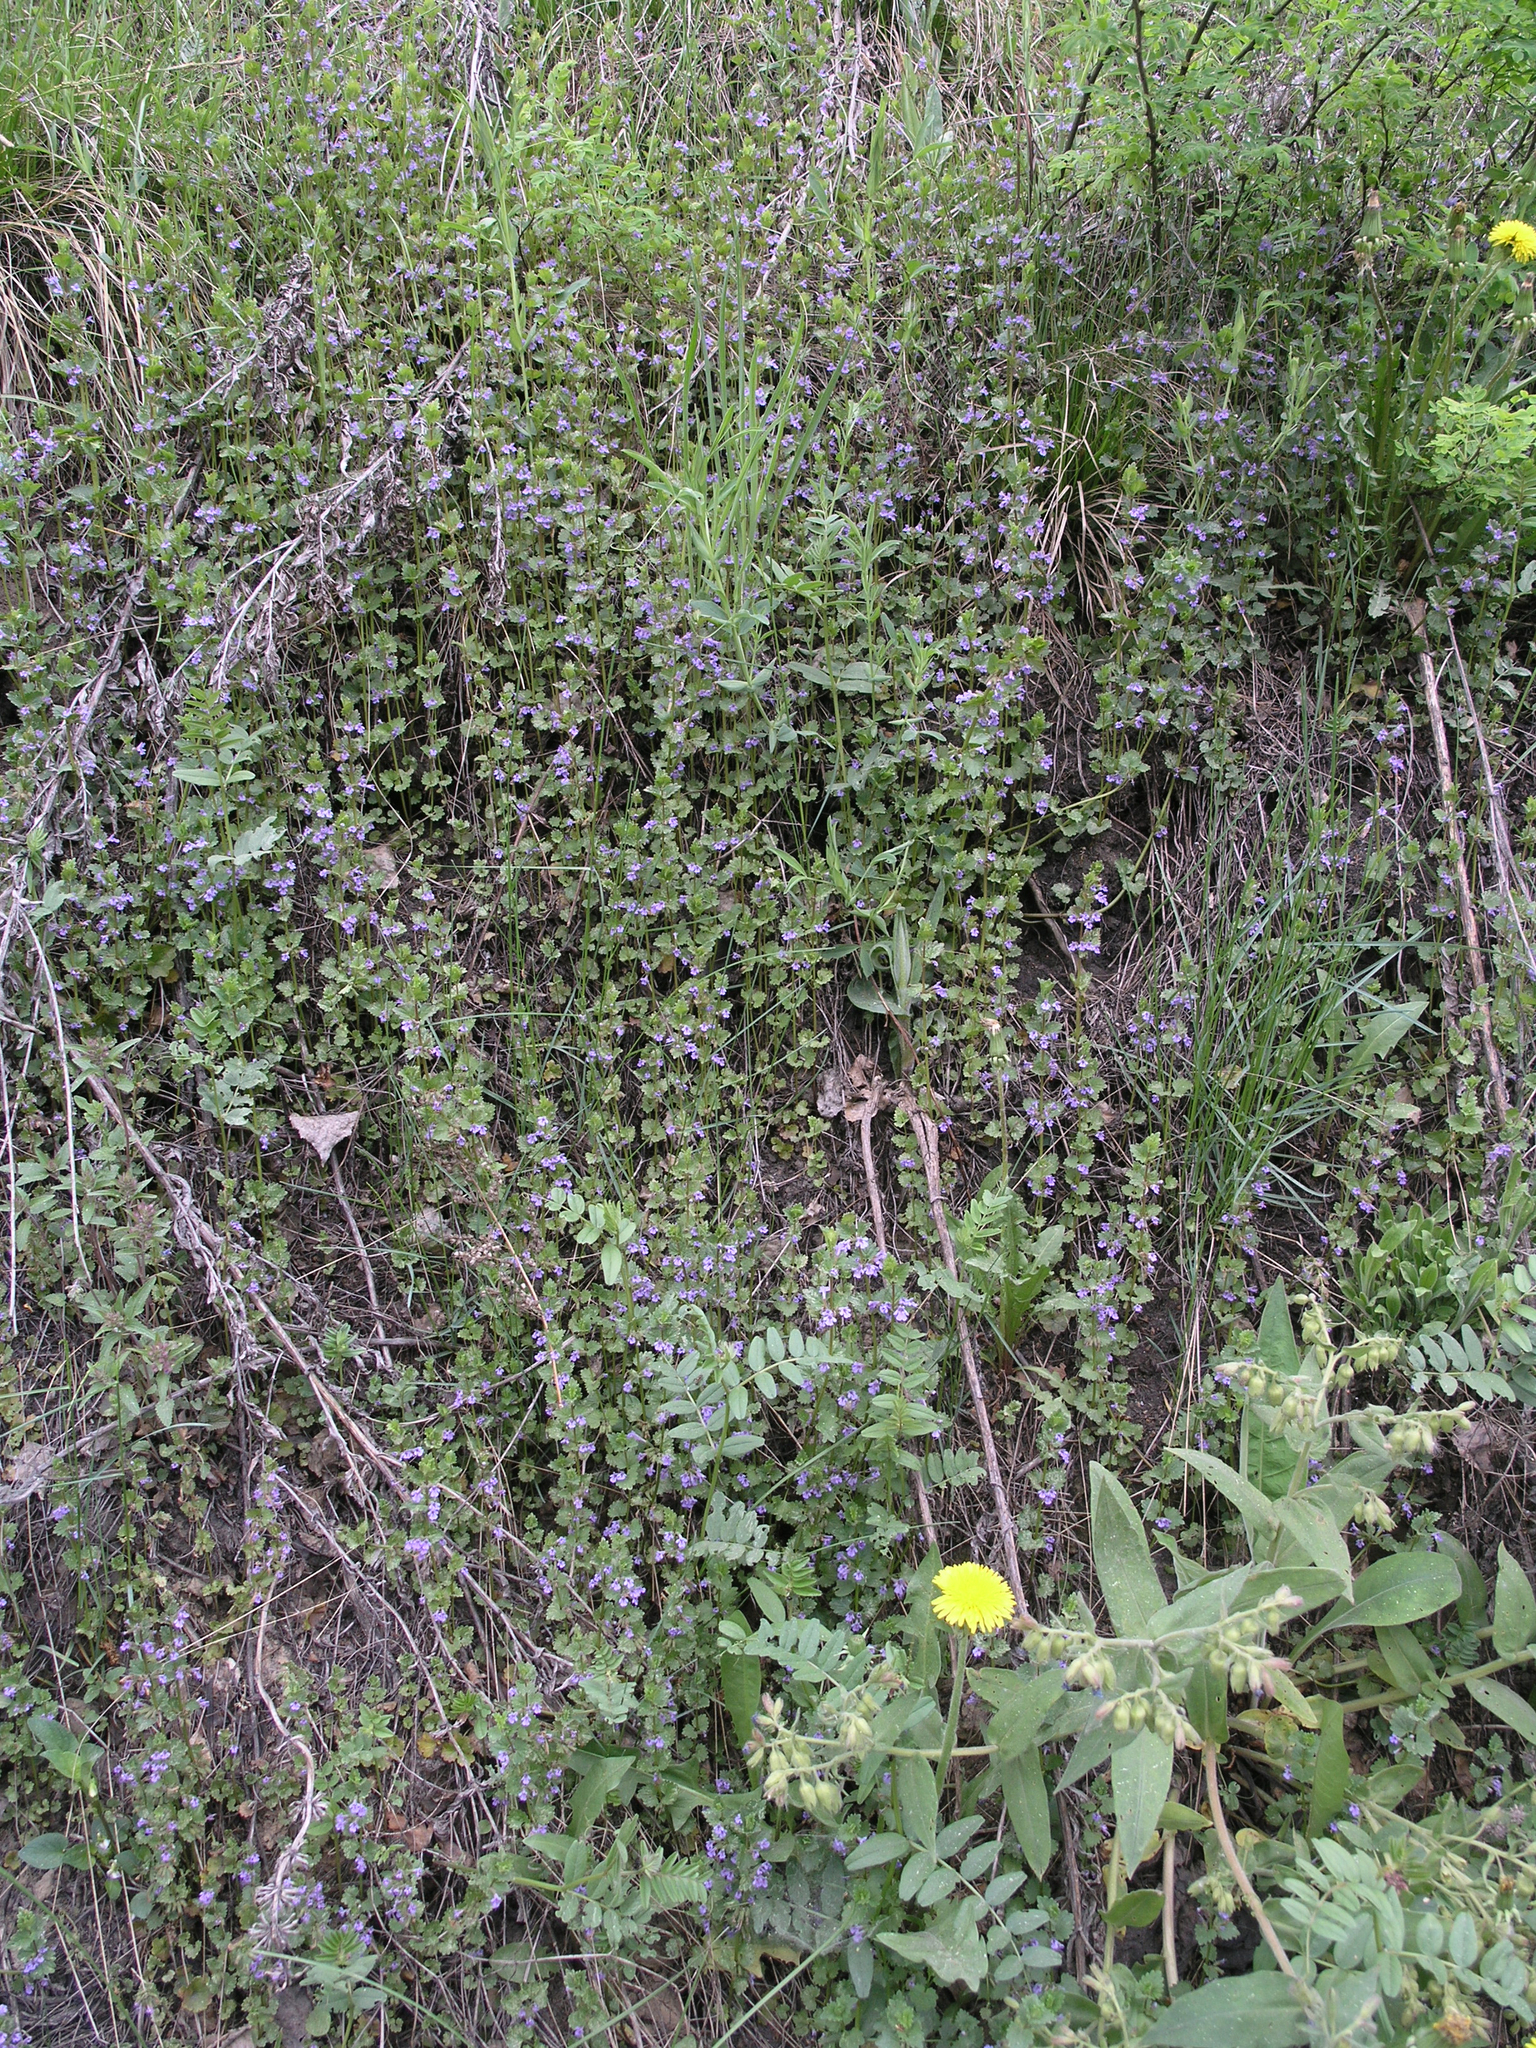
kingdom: Plantae
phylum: Tracheophyta
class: Magnoliopsida
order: Lamiales
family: Lamiaceae
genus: Glechoma
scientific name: Glechoma hederacea
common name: Ground ivy
